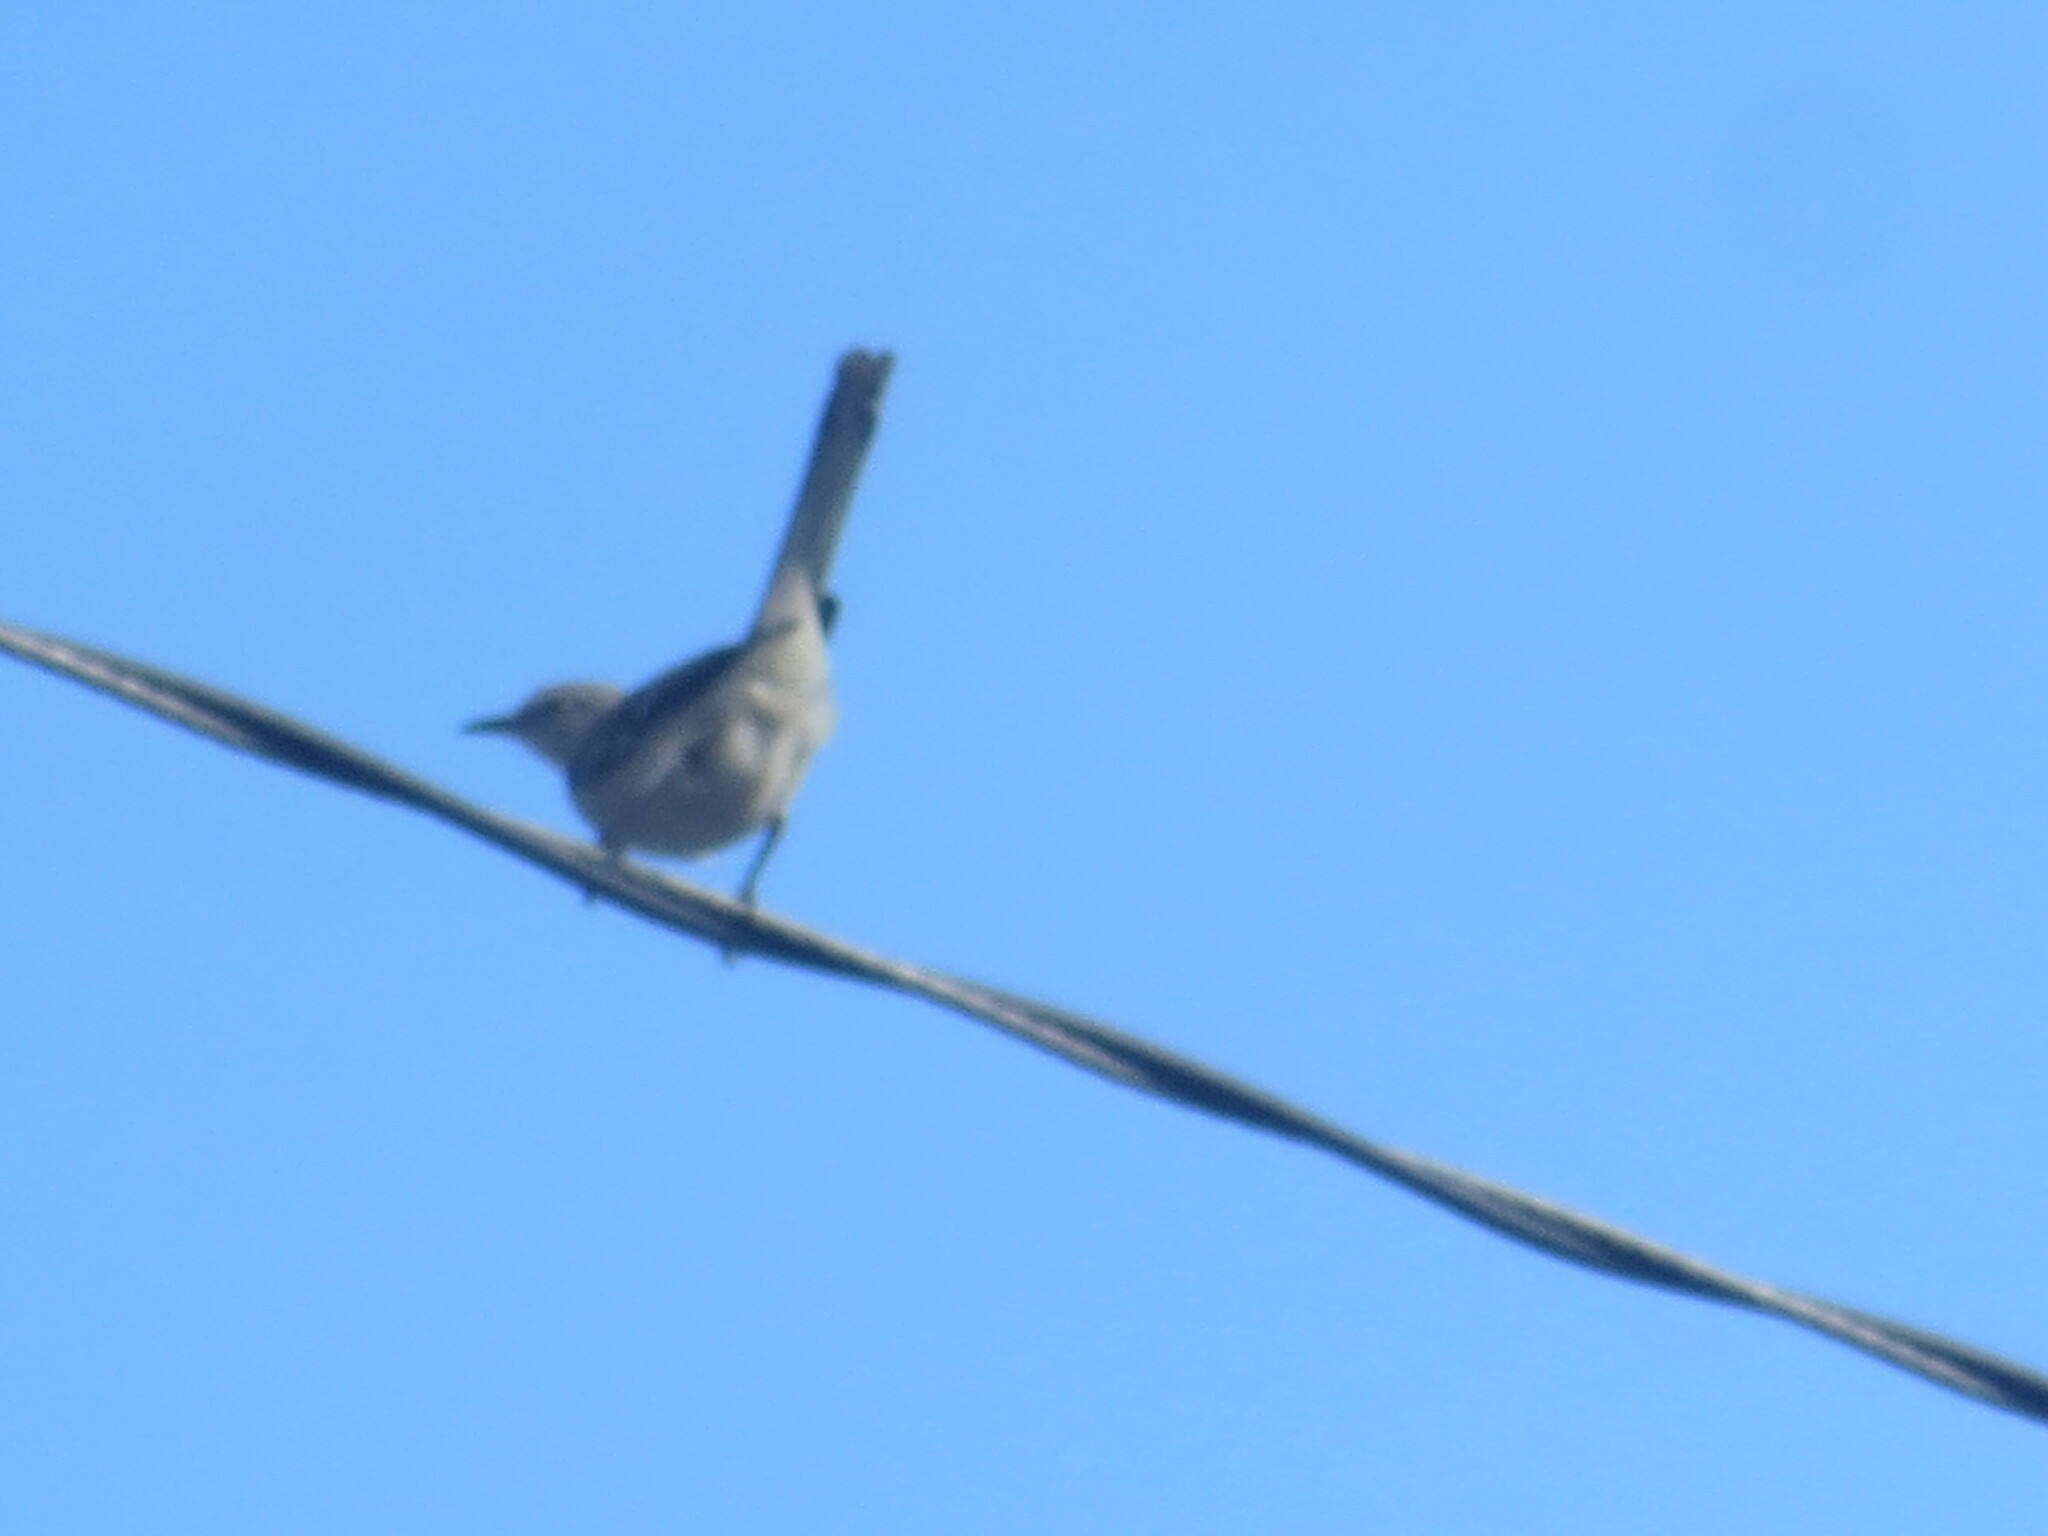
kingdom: Animalia
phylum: Chordata
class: Aves
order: Passeriformes
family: Mimidae
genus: Mimus
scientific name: Mimus polyglottos
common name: Northern mockingbird
